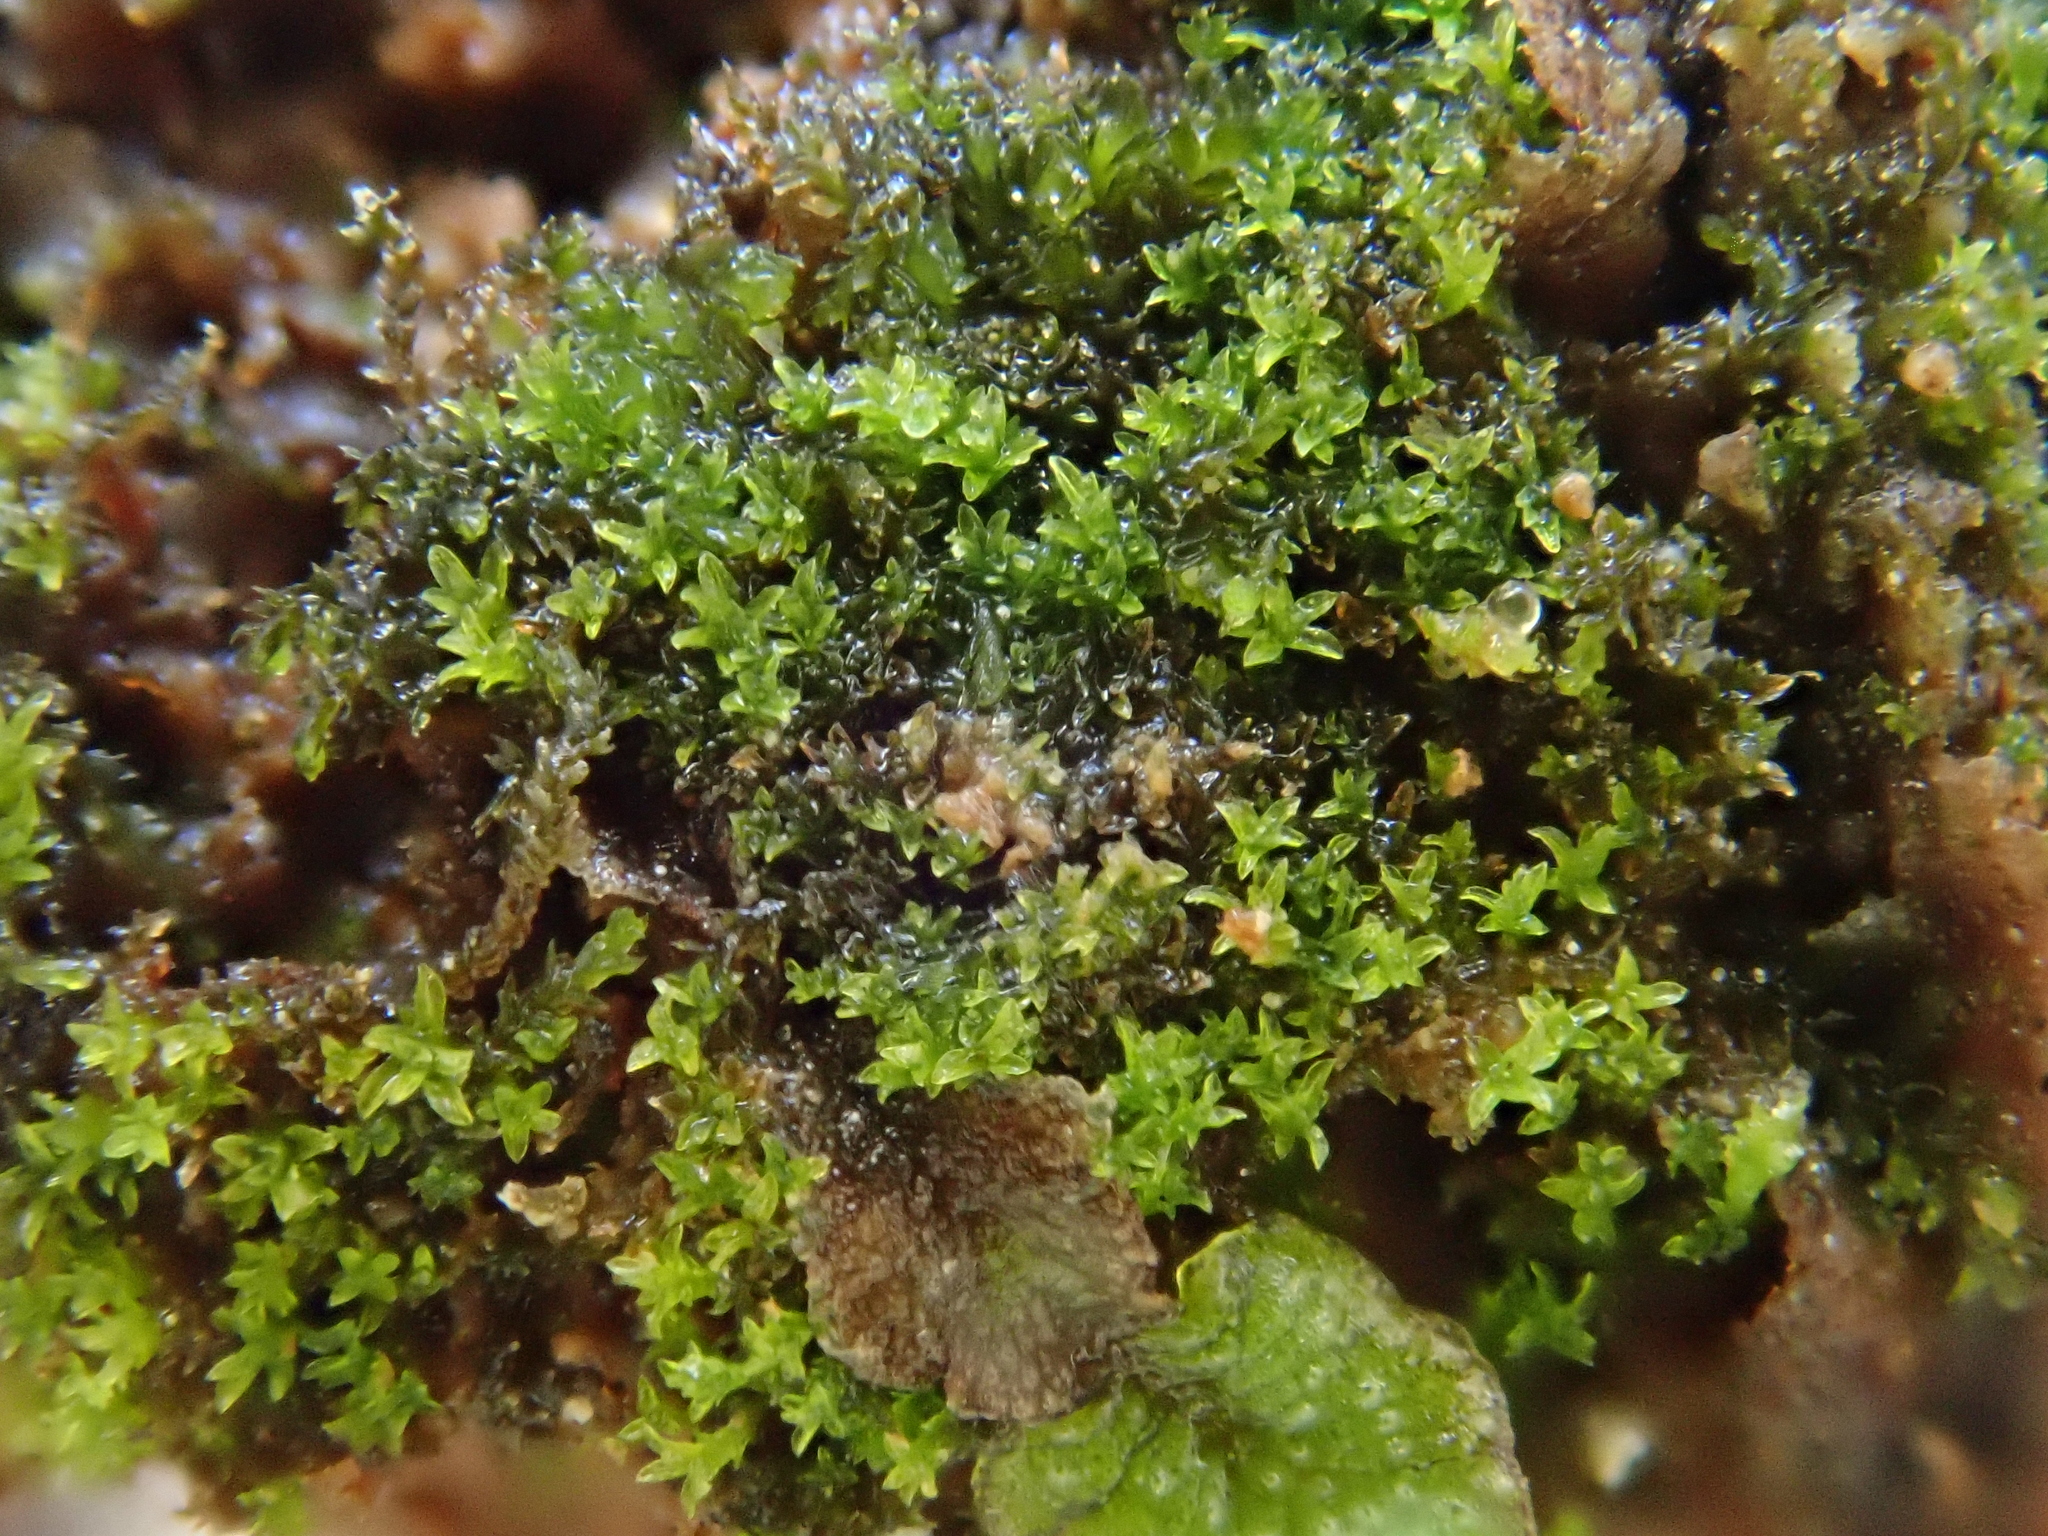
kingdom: Plantae
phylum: Bryophyta
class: Bryopsida
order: Pottiales
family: Pottiaceae
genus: Gymnostomum
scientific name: Gymnostomum viridulum
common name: Luisier's tufa-moss
